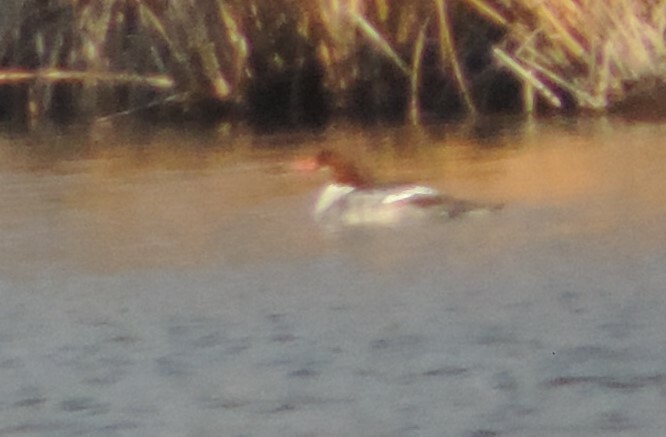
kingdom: Animalia
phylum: Chordata
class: Aves
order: Anseriformes
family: Anatidae
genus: Mergus
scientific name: Mergus merganser
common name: Common merganser
